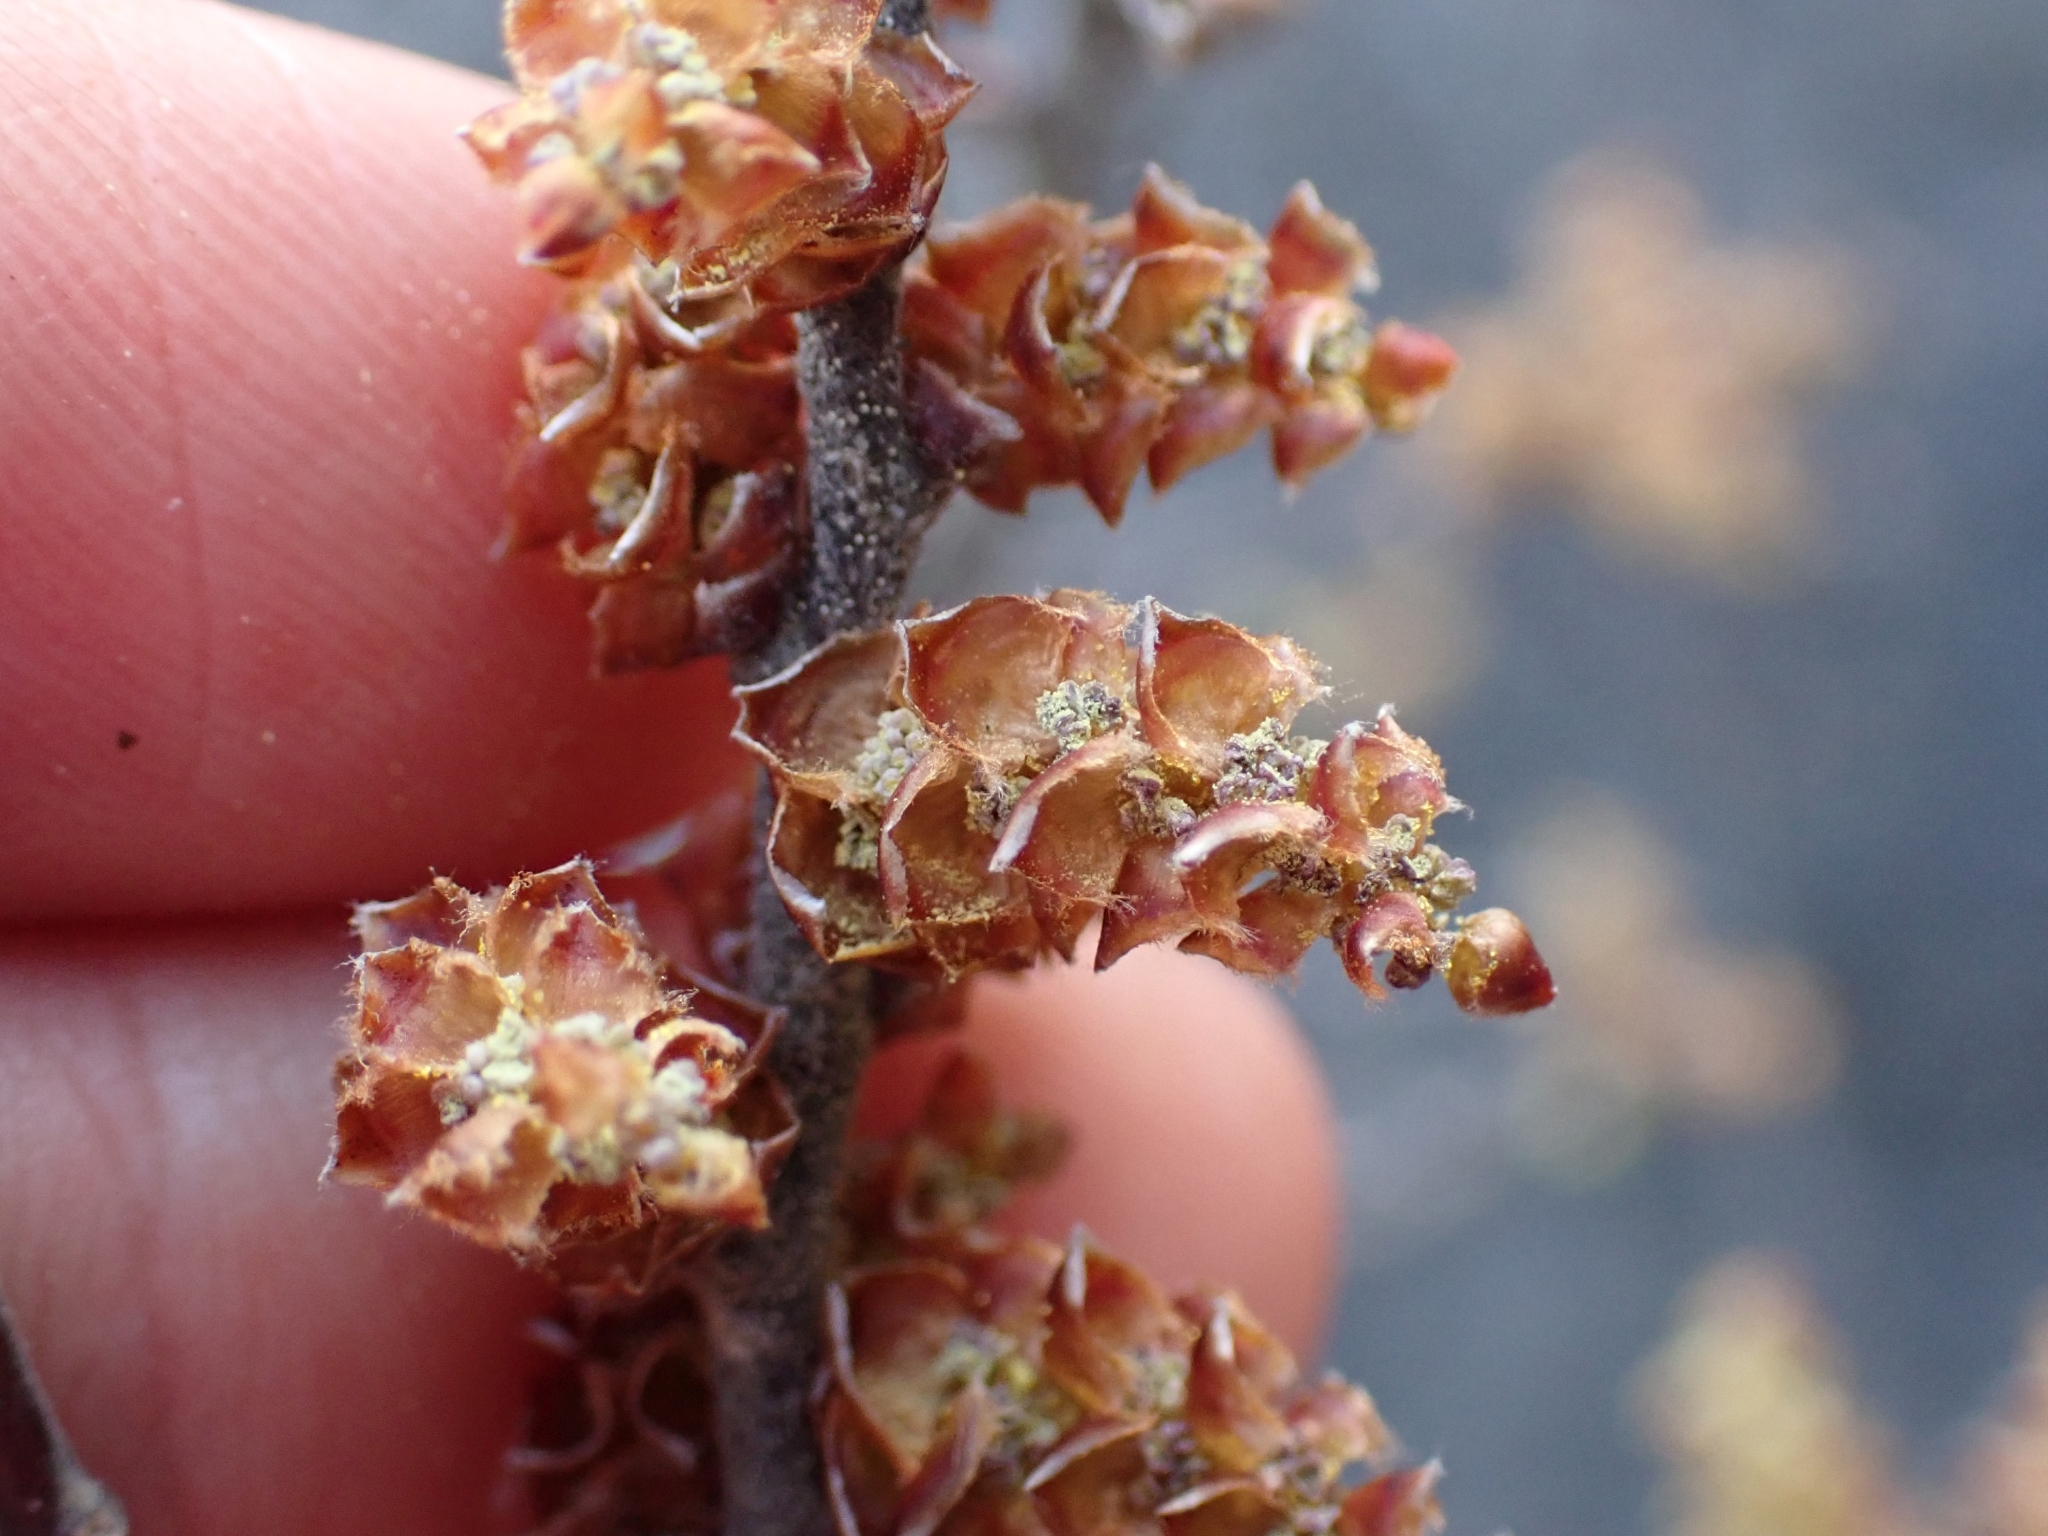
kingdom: Plantae
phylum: Tracheophyta
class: Magnoliopsida
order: Fagales
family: Myricaceae
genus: Myrica
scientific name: Myrica gale
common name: Sweet gale
